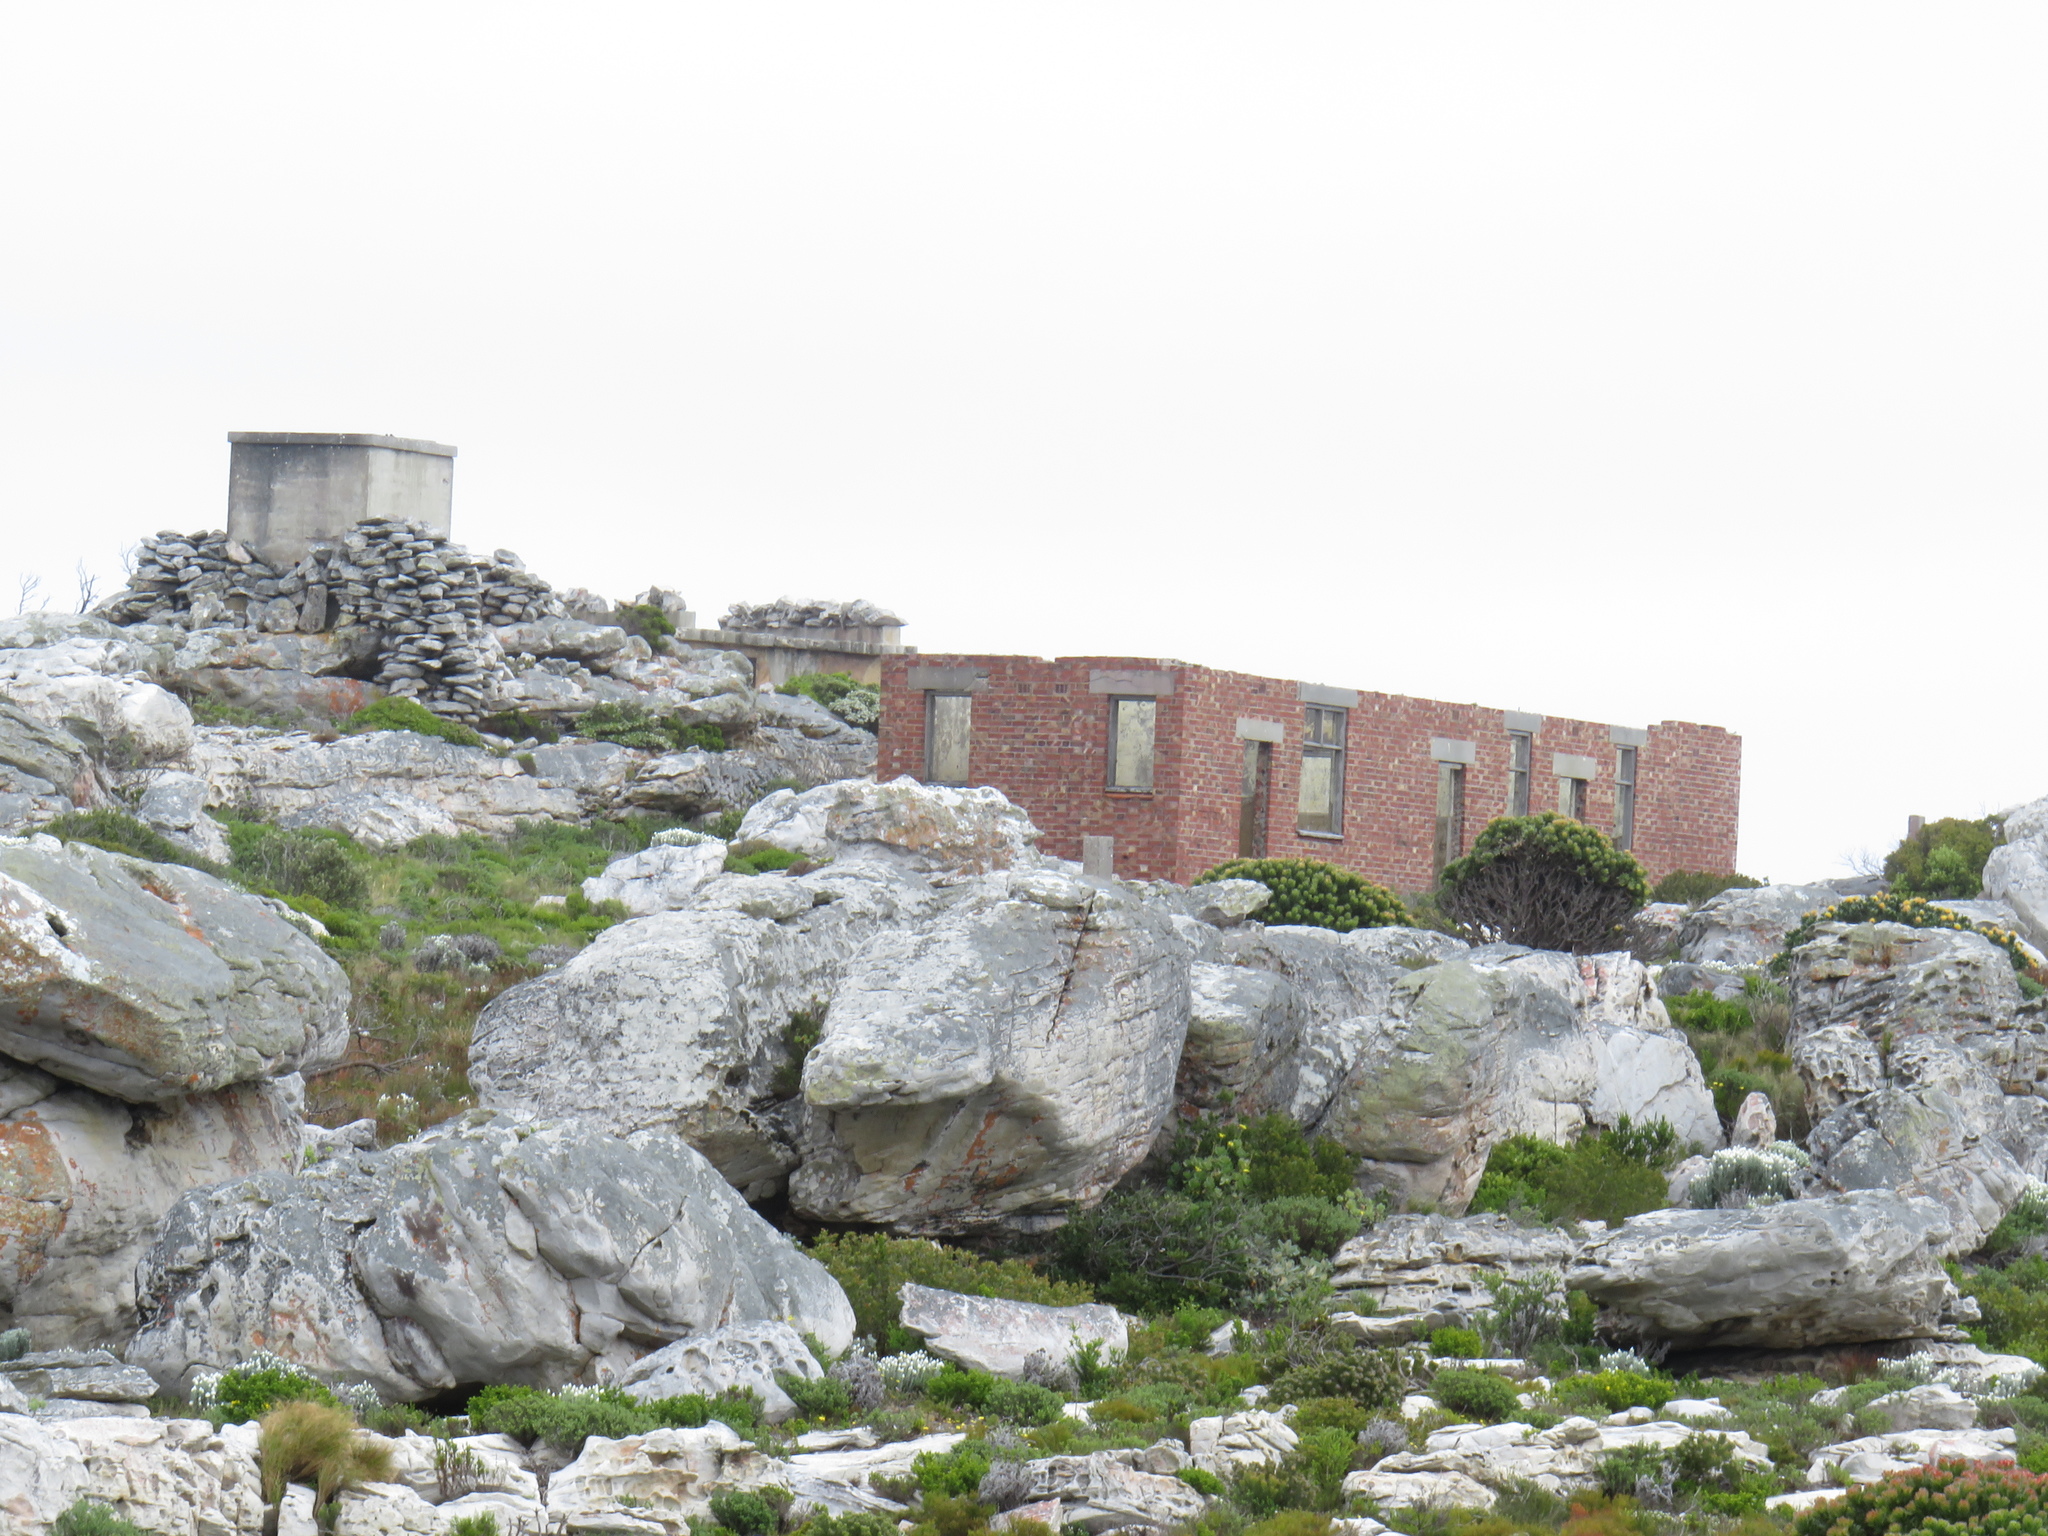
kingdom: Plantae
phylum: Tracheophyta
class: Magnoliopsida
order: Proteales
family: Proteaceae
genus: Leucospermum
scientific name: Leucospermum conocarpodendron
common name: Tree pincushion
